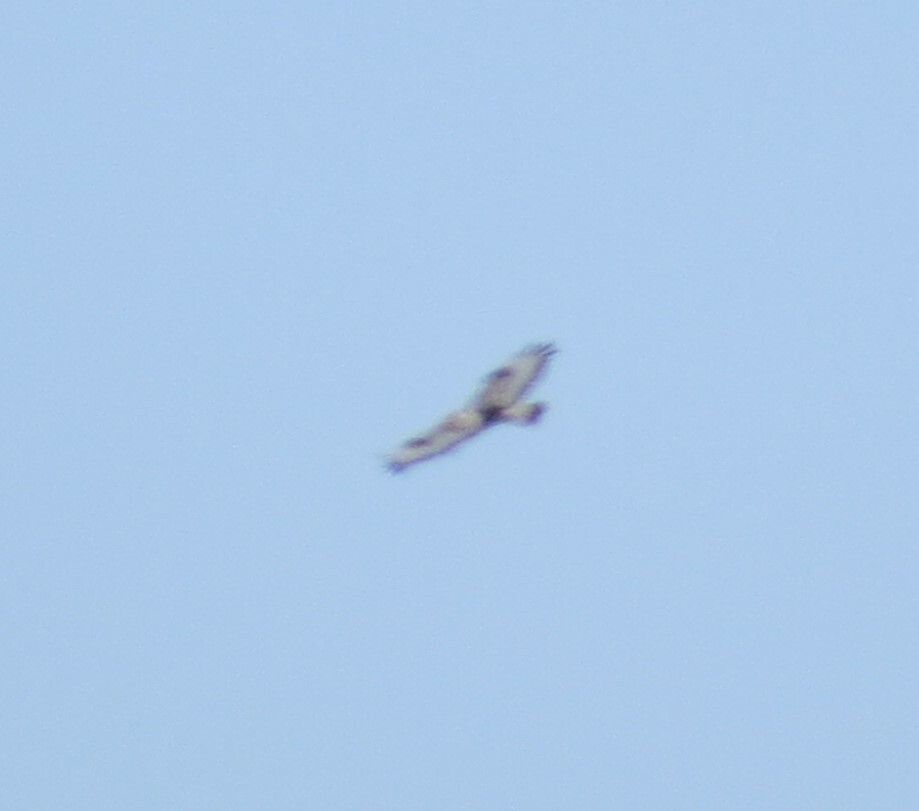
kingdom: Animalia
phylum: Chordata
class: Aves
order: Accipitriformes
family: Accipitridae
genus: Buteo
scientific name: Buteo lagopus
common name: Rough-legged buzzard
